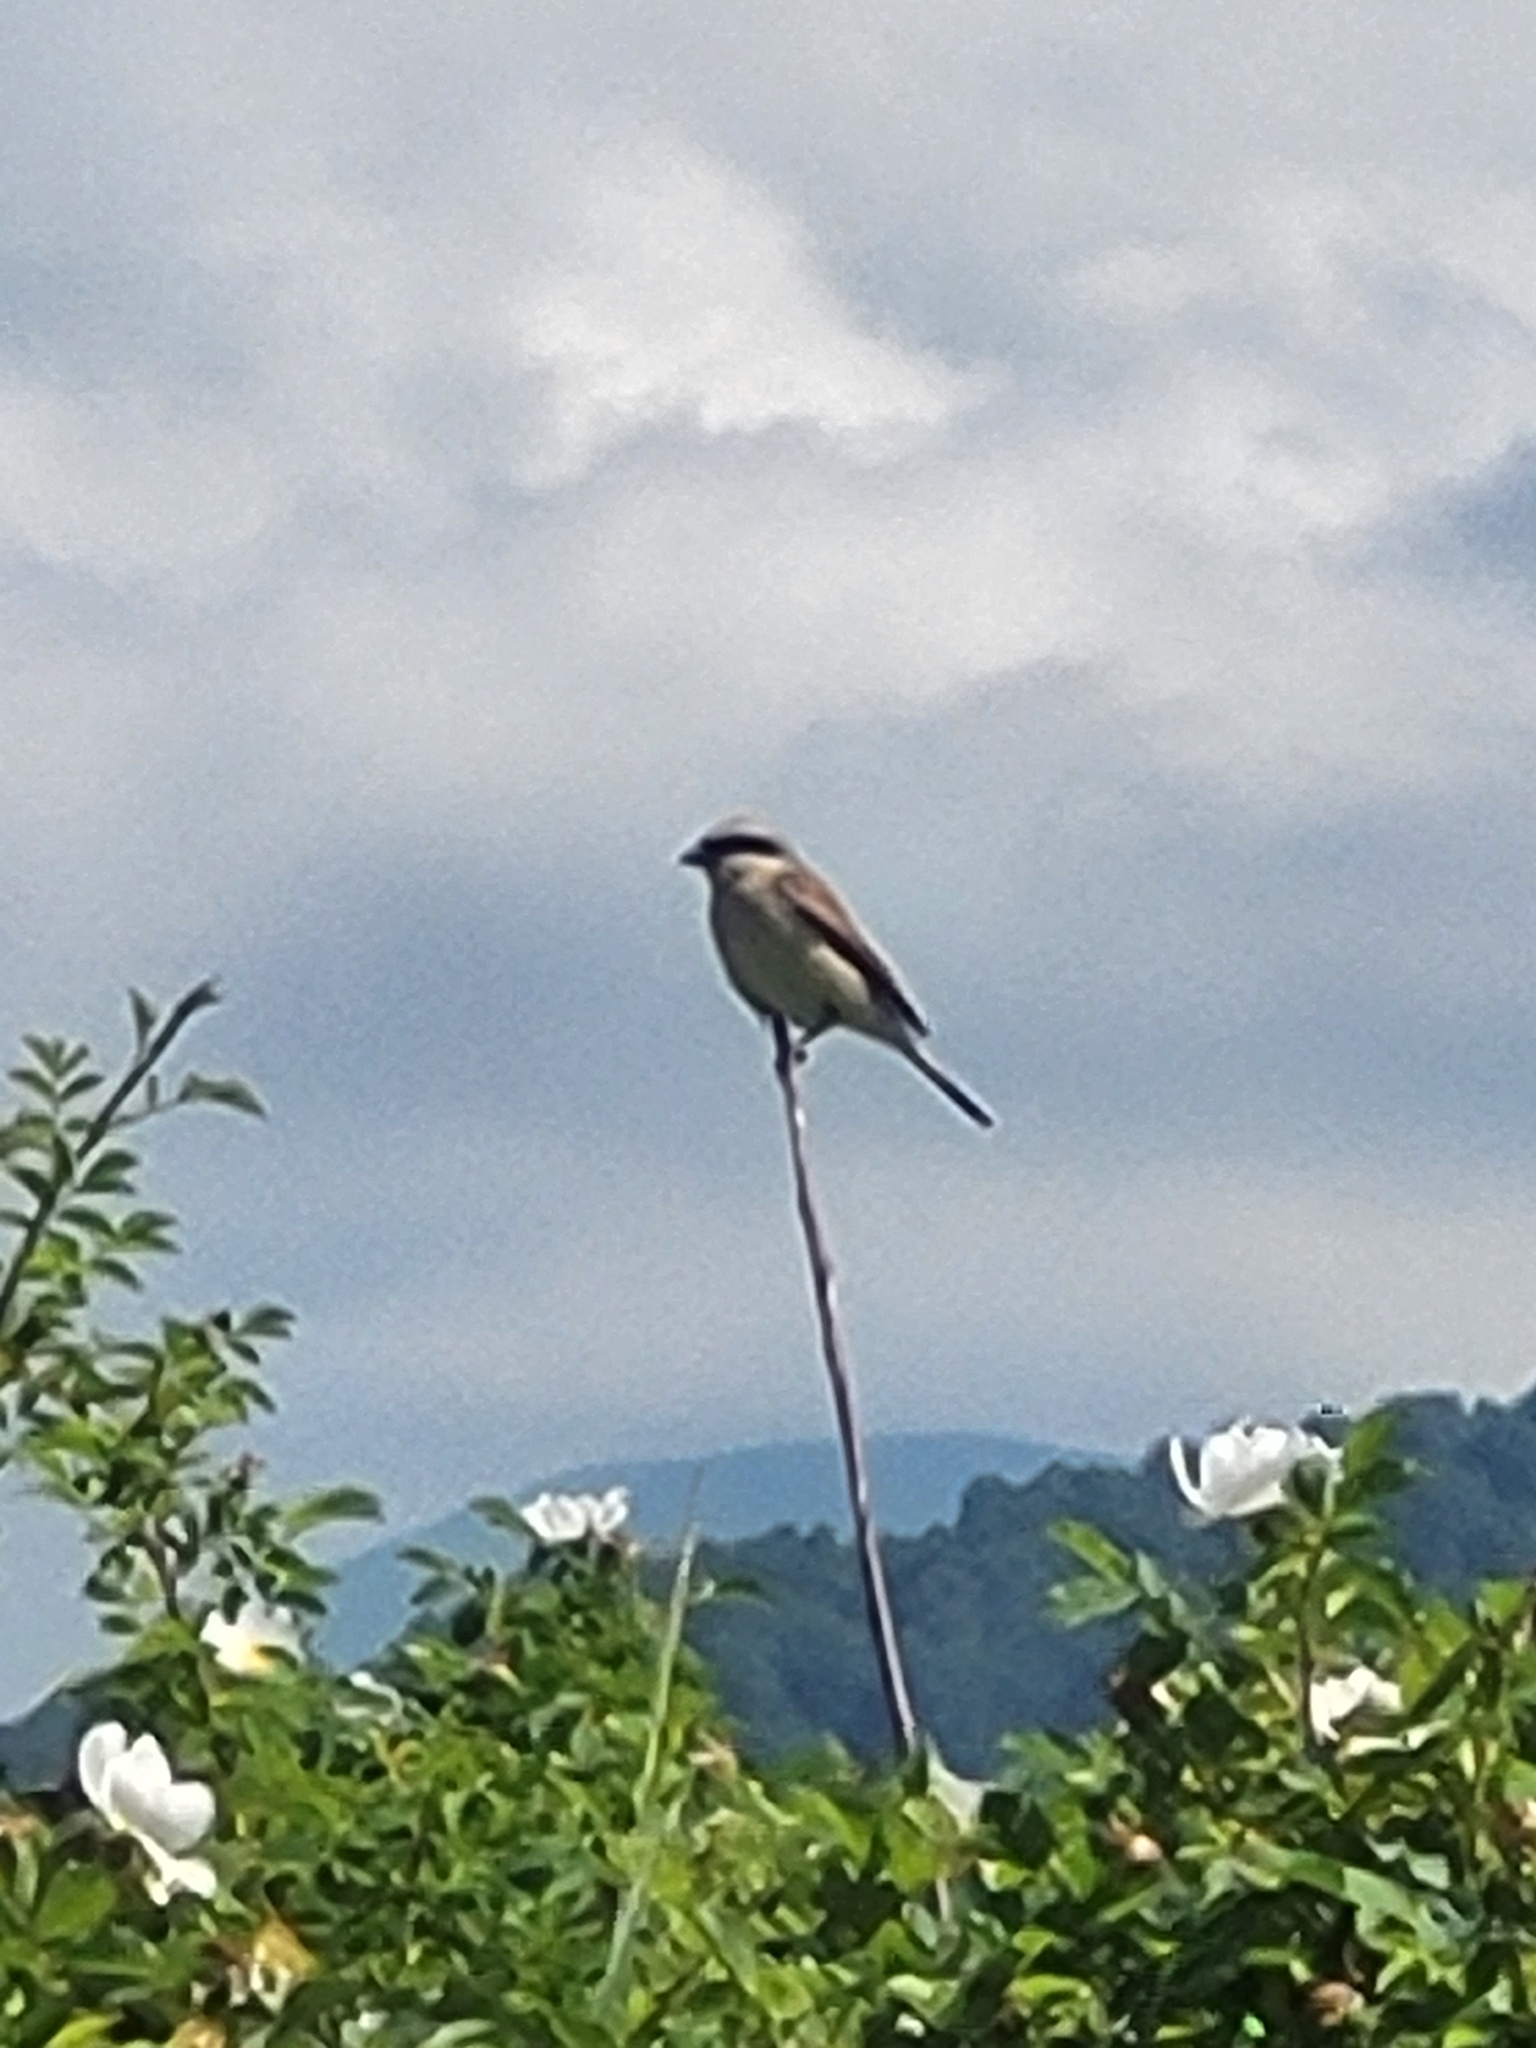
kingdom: Animalia
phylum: Chordata
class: Aves
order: Passeriformes
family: Laniidae
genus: Lanius
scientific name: Lanius collurio
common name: Red-backed shrike
